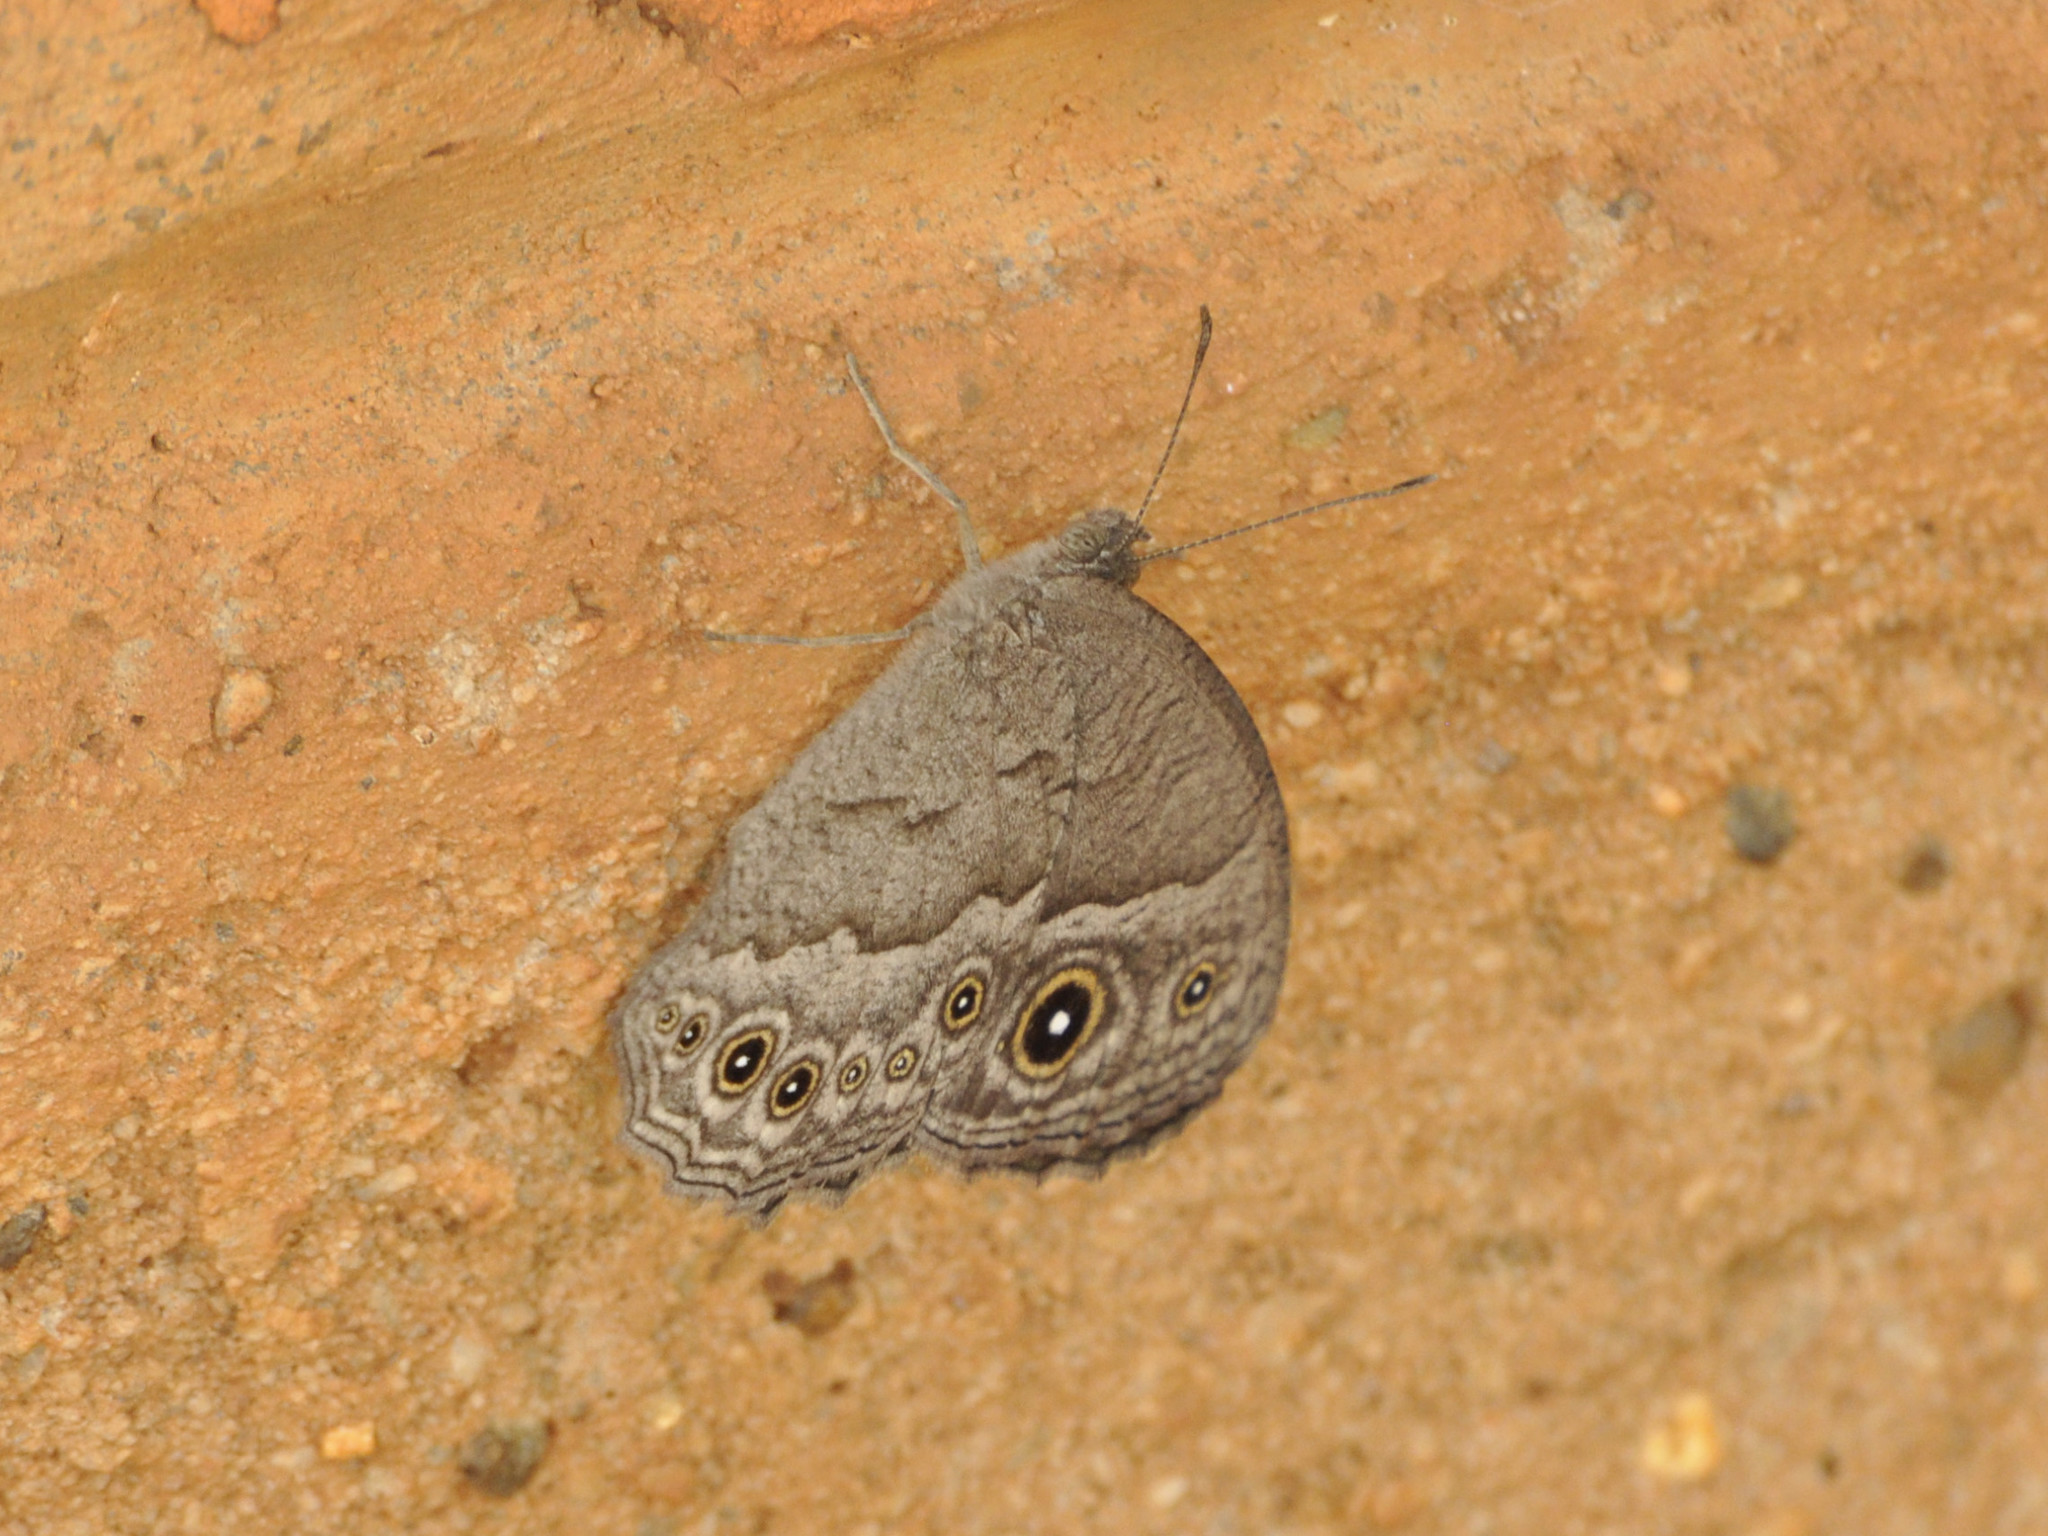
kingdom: Animalia
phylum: Arthropoda
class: Insecta
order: Lepidoptera
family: Nymphalidae
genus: Mycalesis
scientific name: Mycalesis ena
